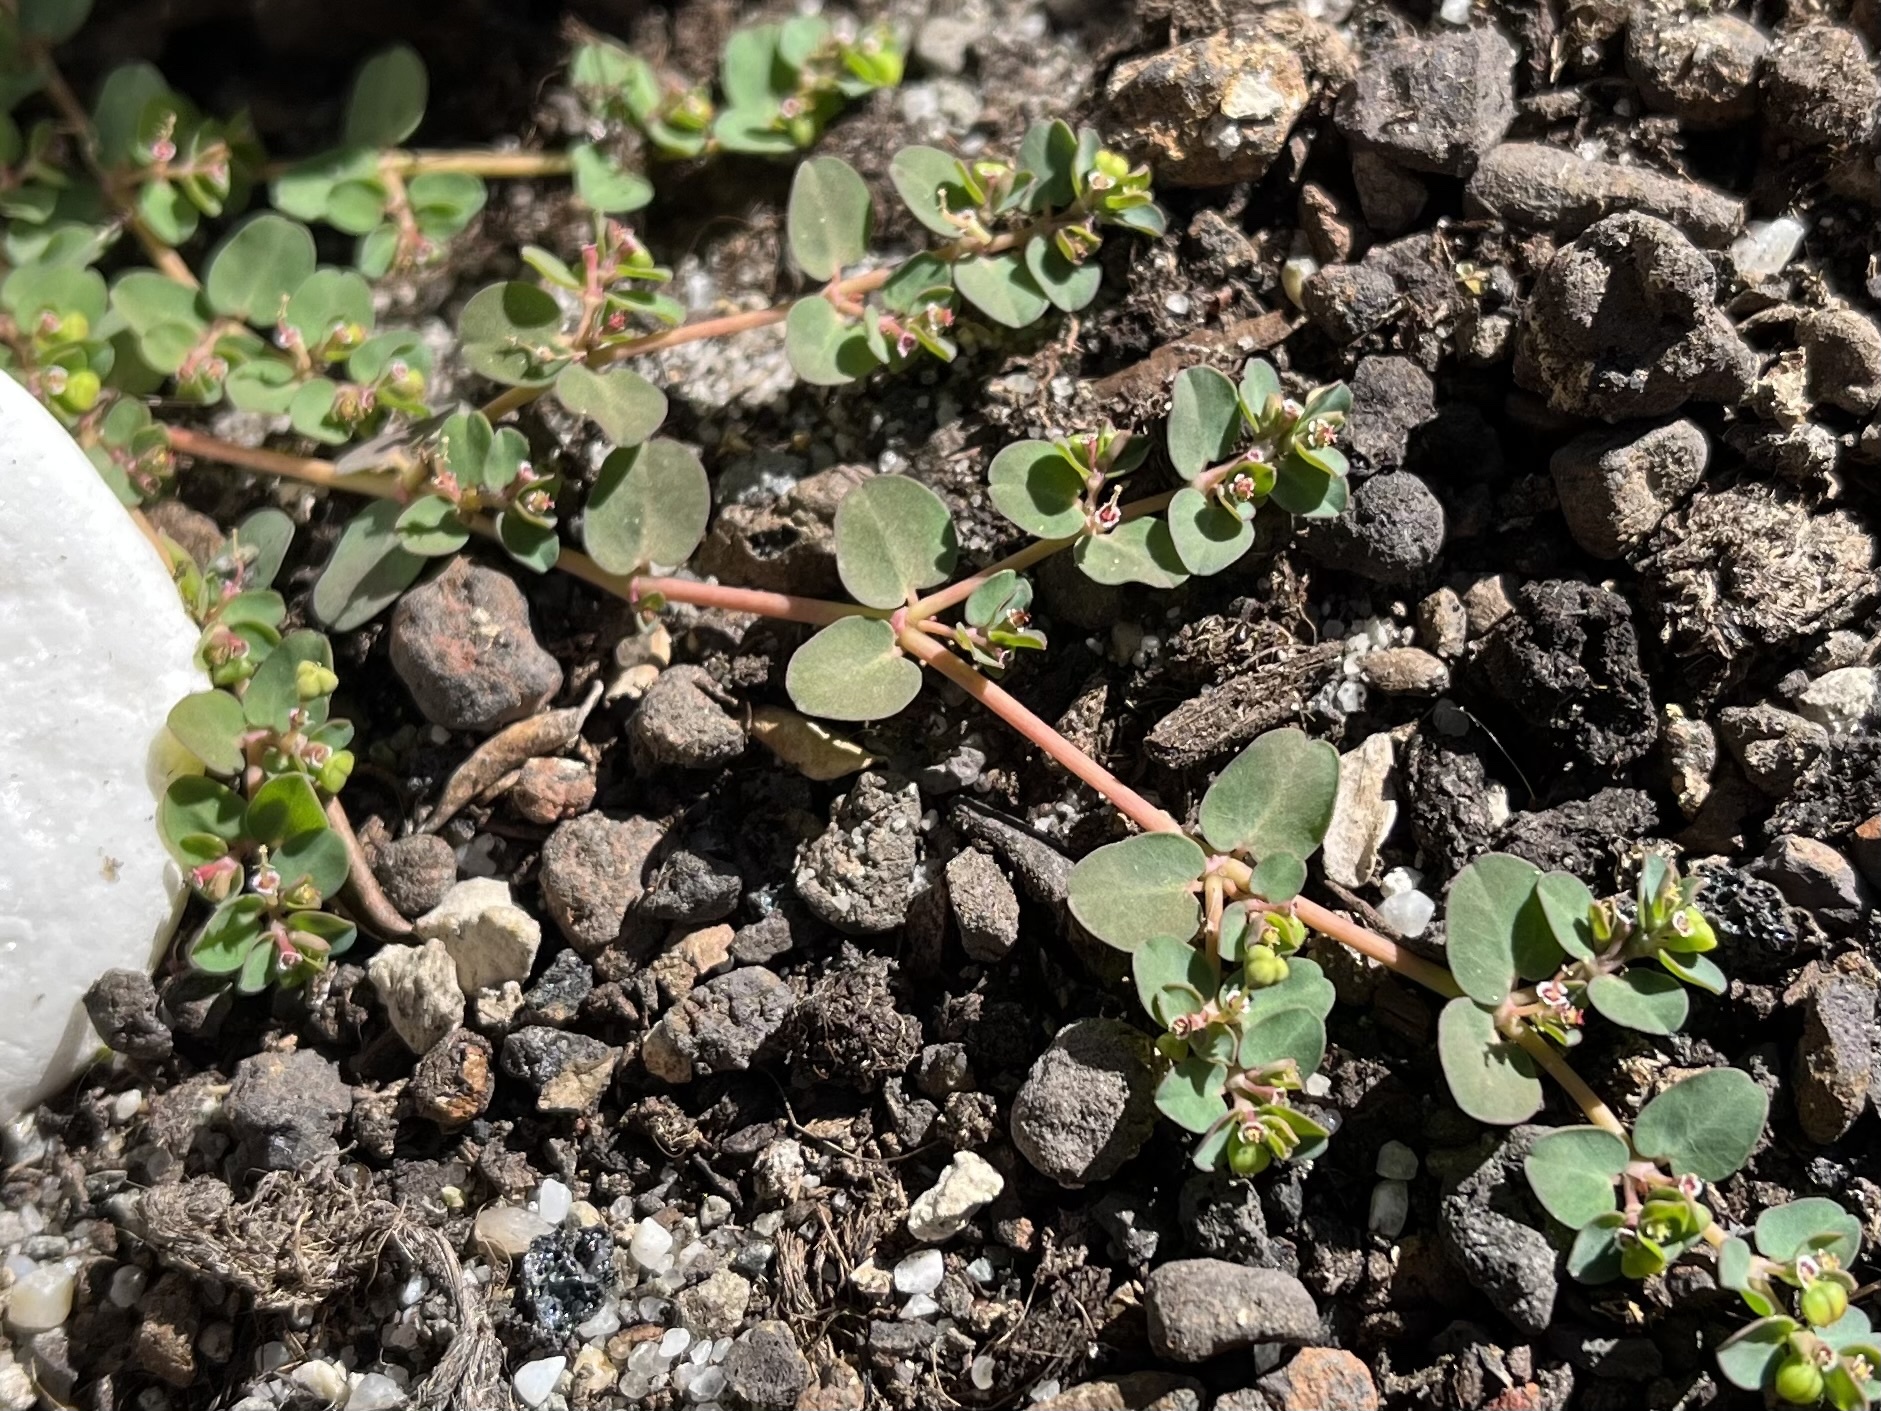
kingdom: Plantae
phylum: Tracheophyta
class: Magnoliopsida
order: Malpighiales
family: Euphorbiaceae
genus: Euphorbia
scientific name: Euphorbia serpens
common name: Matted sandmat
